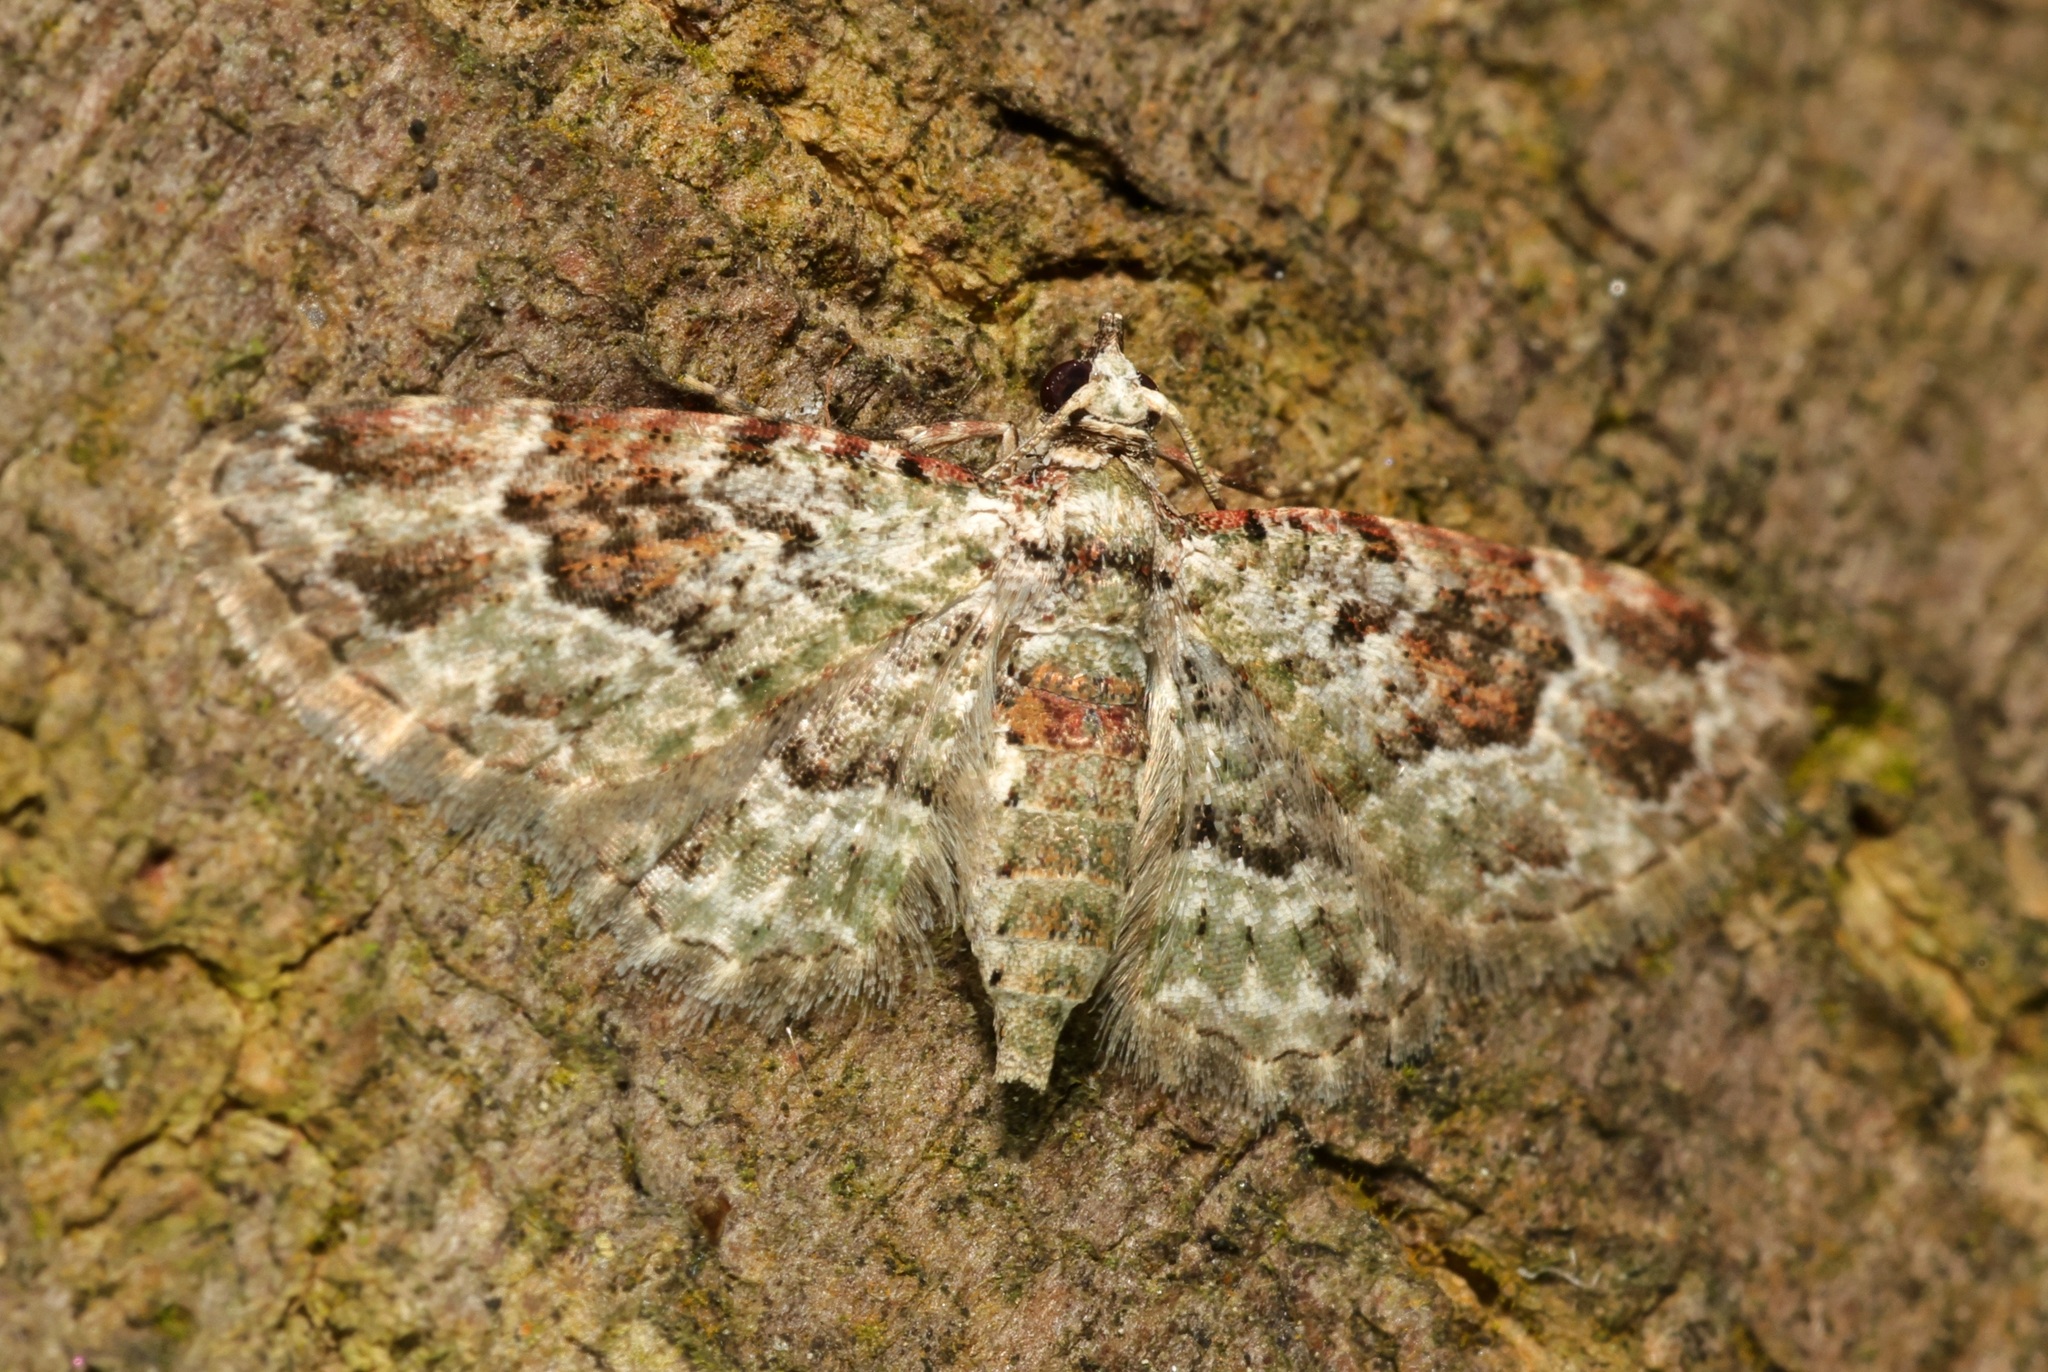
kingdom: Animalia
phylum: Arthropoda
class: Insecta
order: Lepidoptera
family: Geometridae
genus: Calluga
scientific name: Calluga costalis
